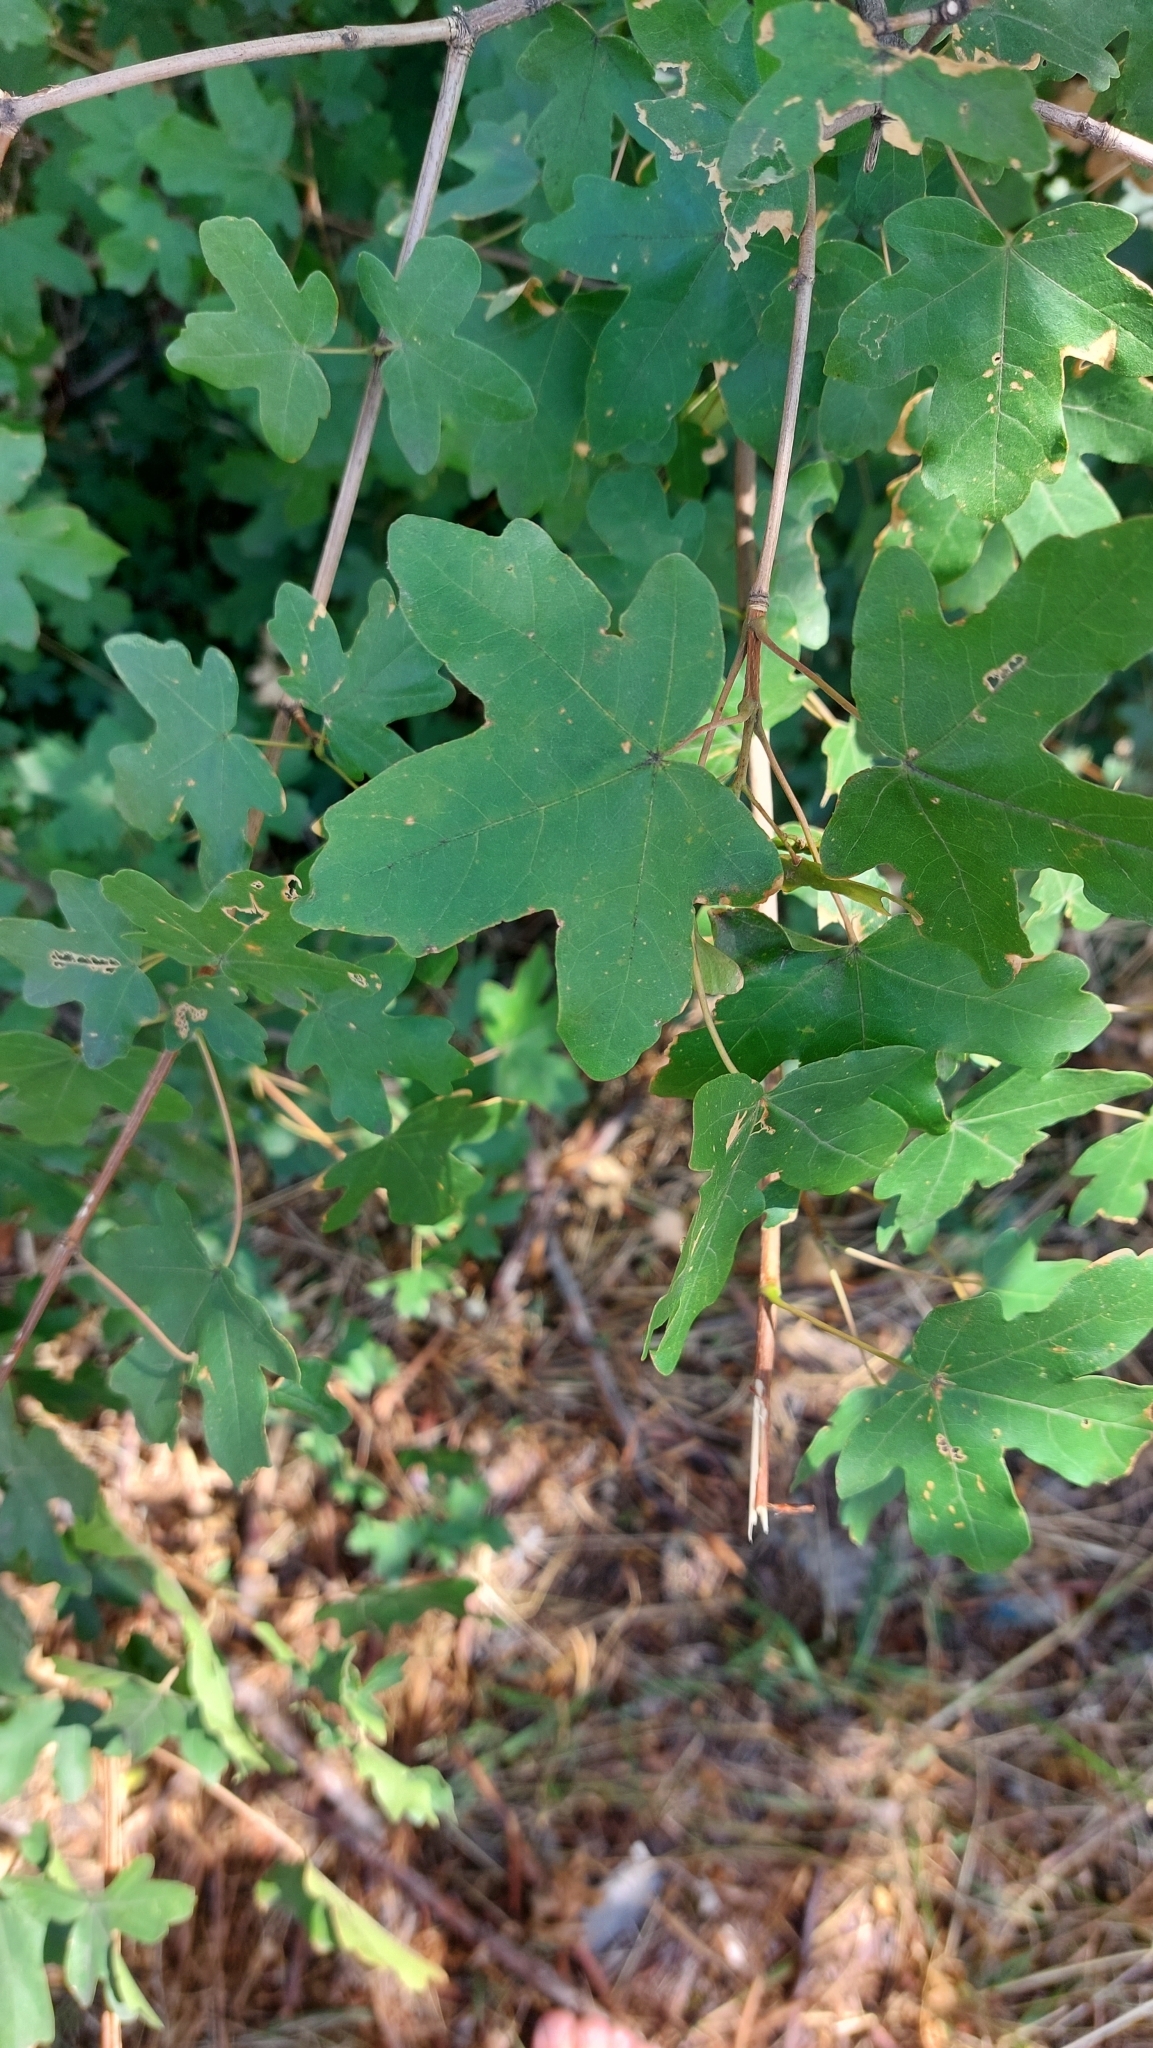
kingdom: Plantae
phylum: Tracheophyta
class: Magnoliopsida
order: Sapindales
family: Sapindaceae
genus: Acer
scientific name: Acer campestre
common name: Field maple
